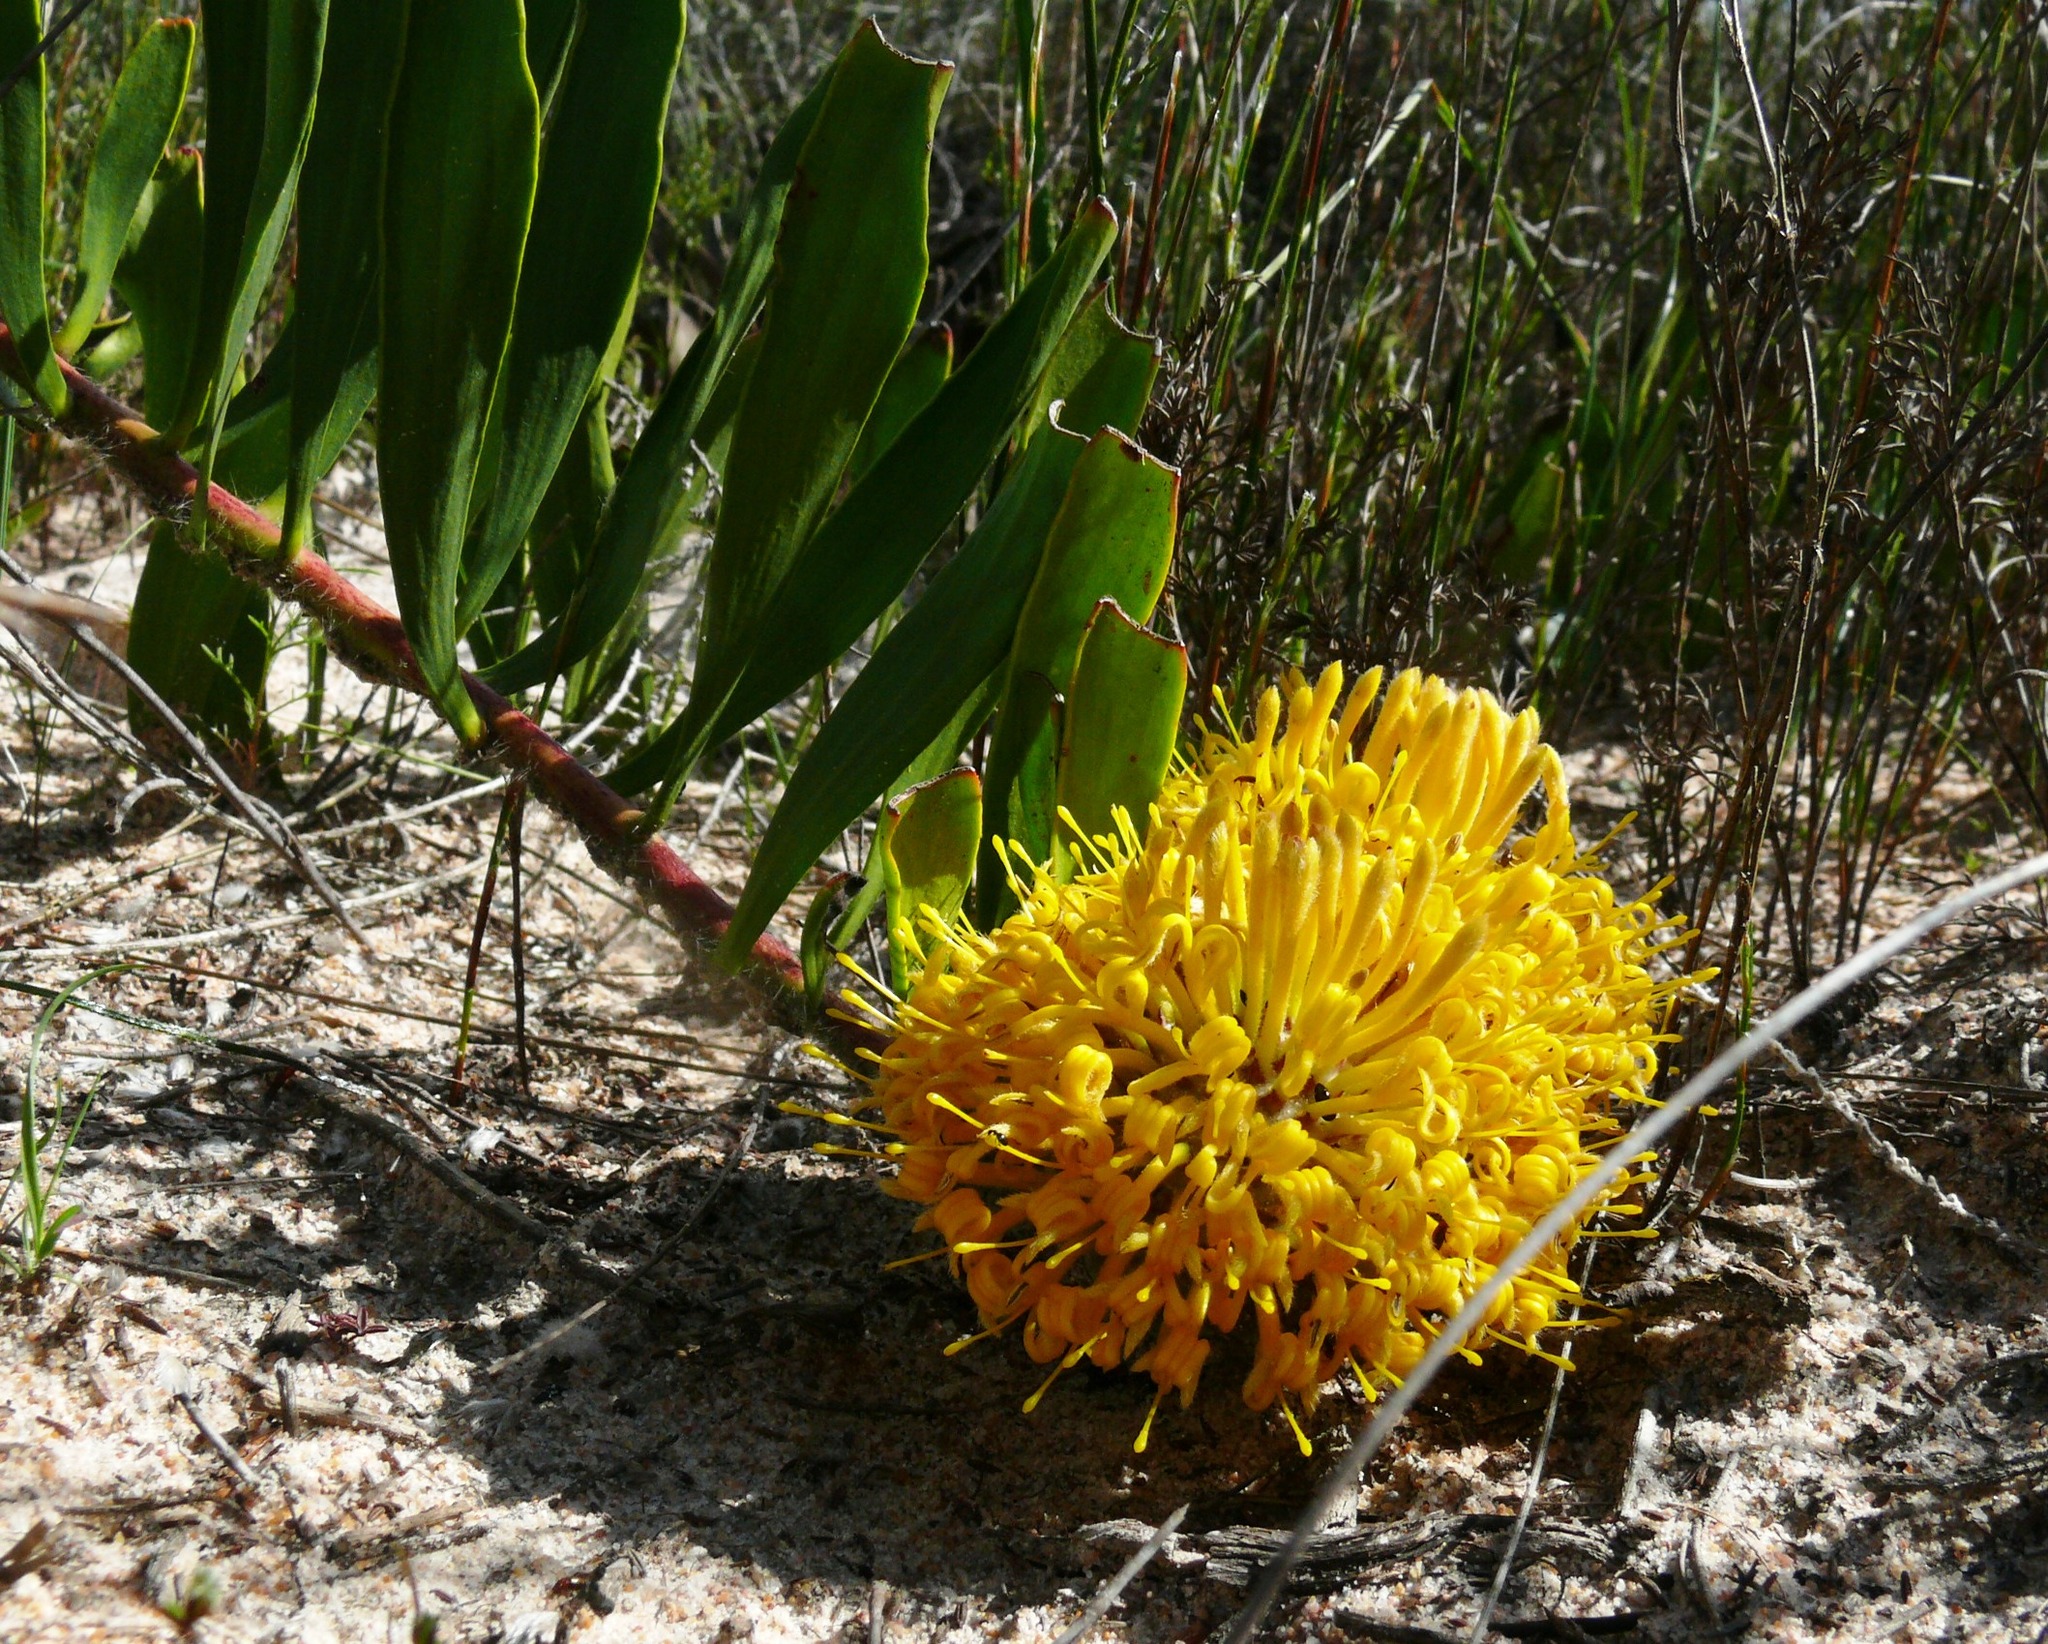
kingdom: Plantae
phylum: Tracheophyta
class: Magnoliopsida
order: Proteales
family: Proteaceae
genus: Leucospermum
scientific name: Leucospermum hypophyllocarpodendron
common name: Snakestem pincushion
